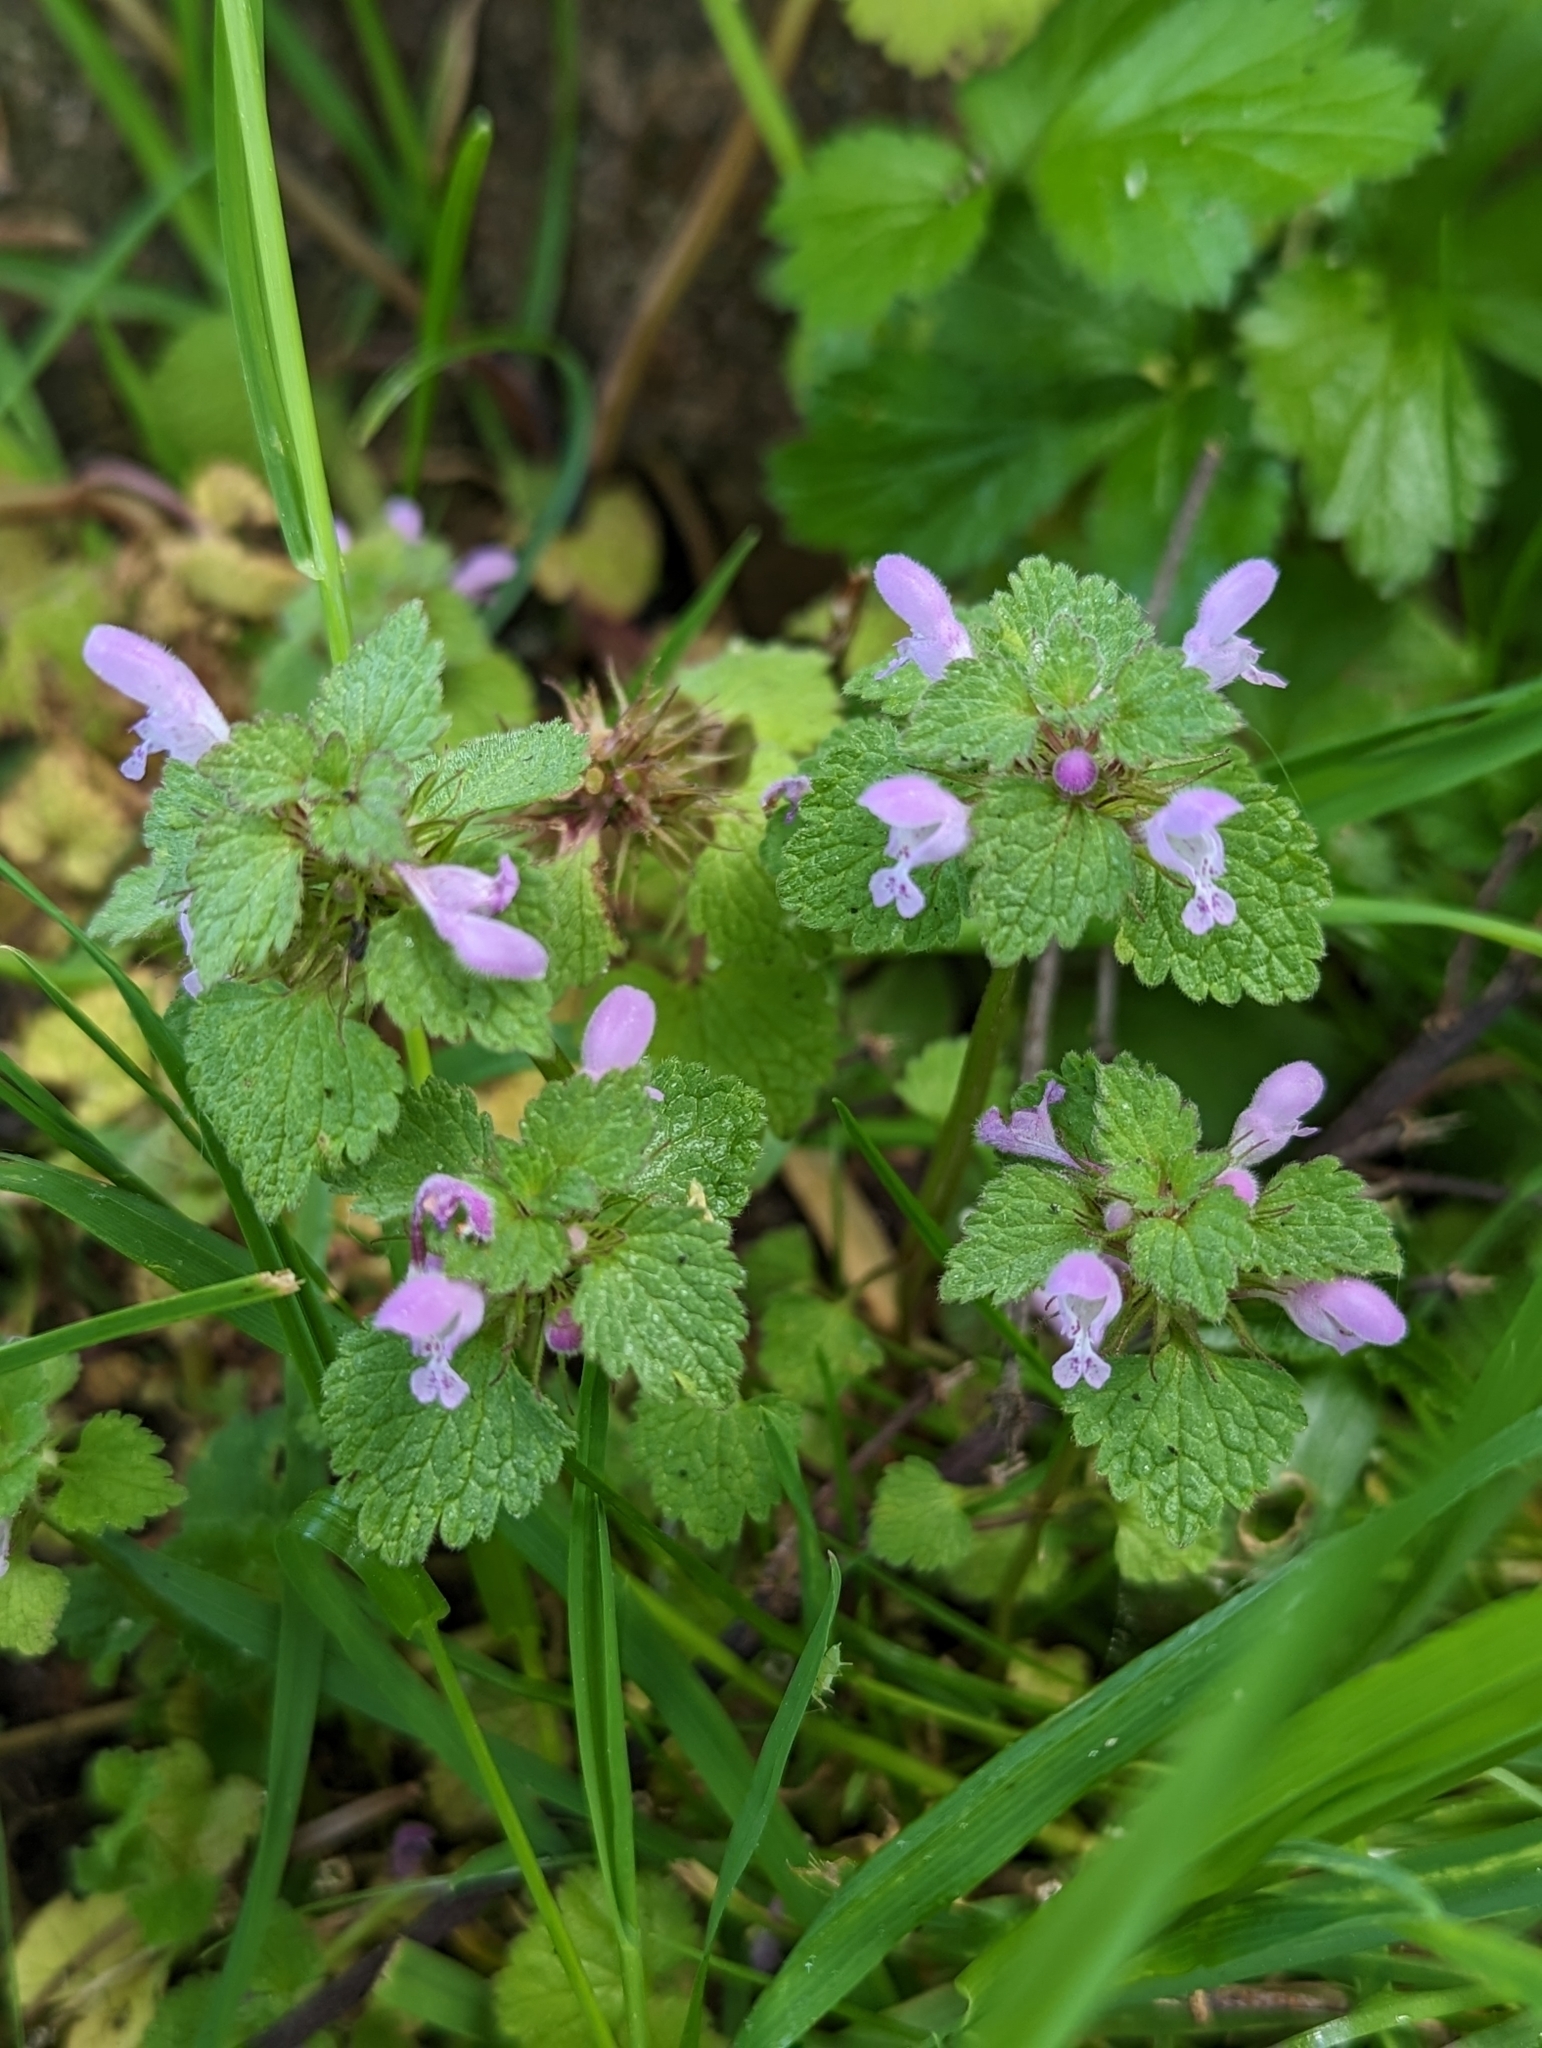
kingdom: Plantae
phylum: Tracheophyta
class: Magnoliopsida
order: Lamiales
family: Lamiaceae
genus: Lamium
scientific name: Lamium purpureum
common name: Red dead-nettle
